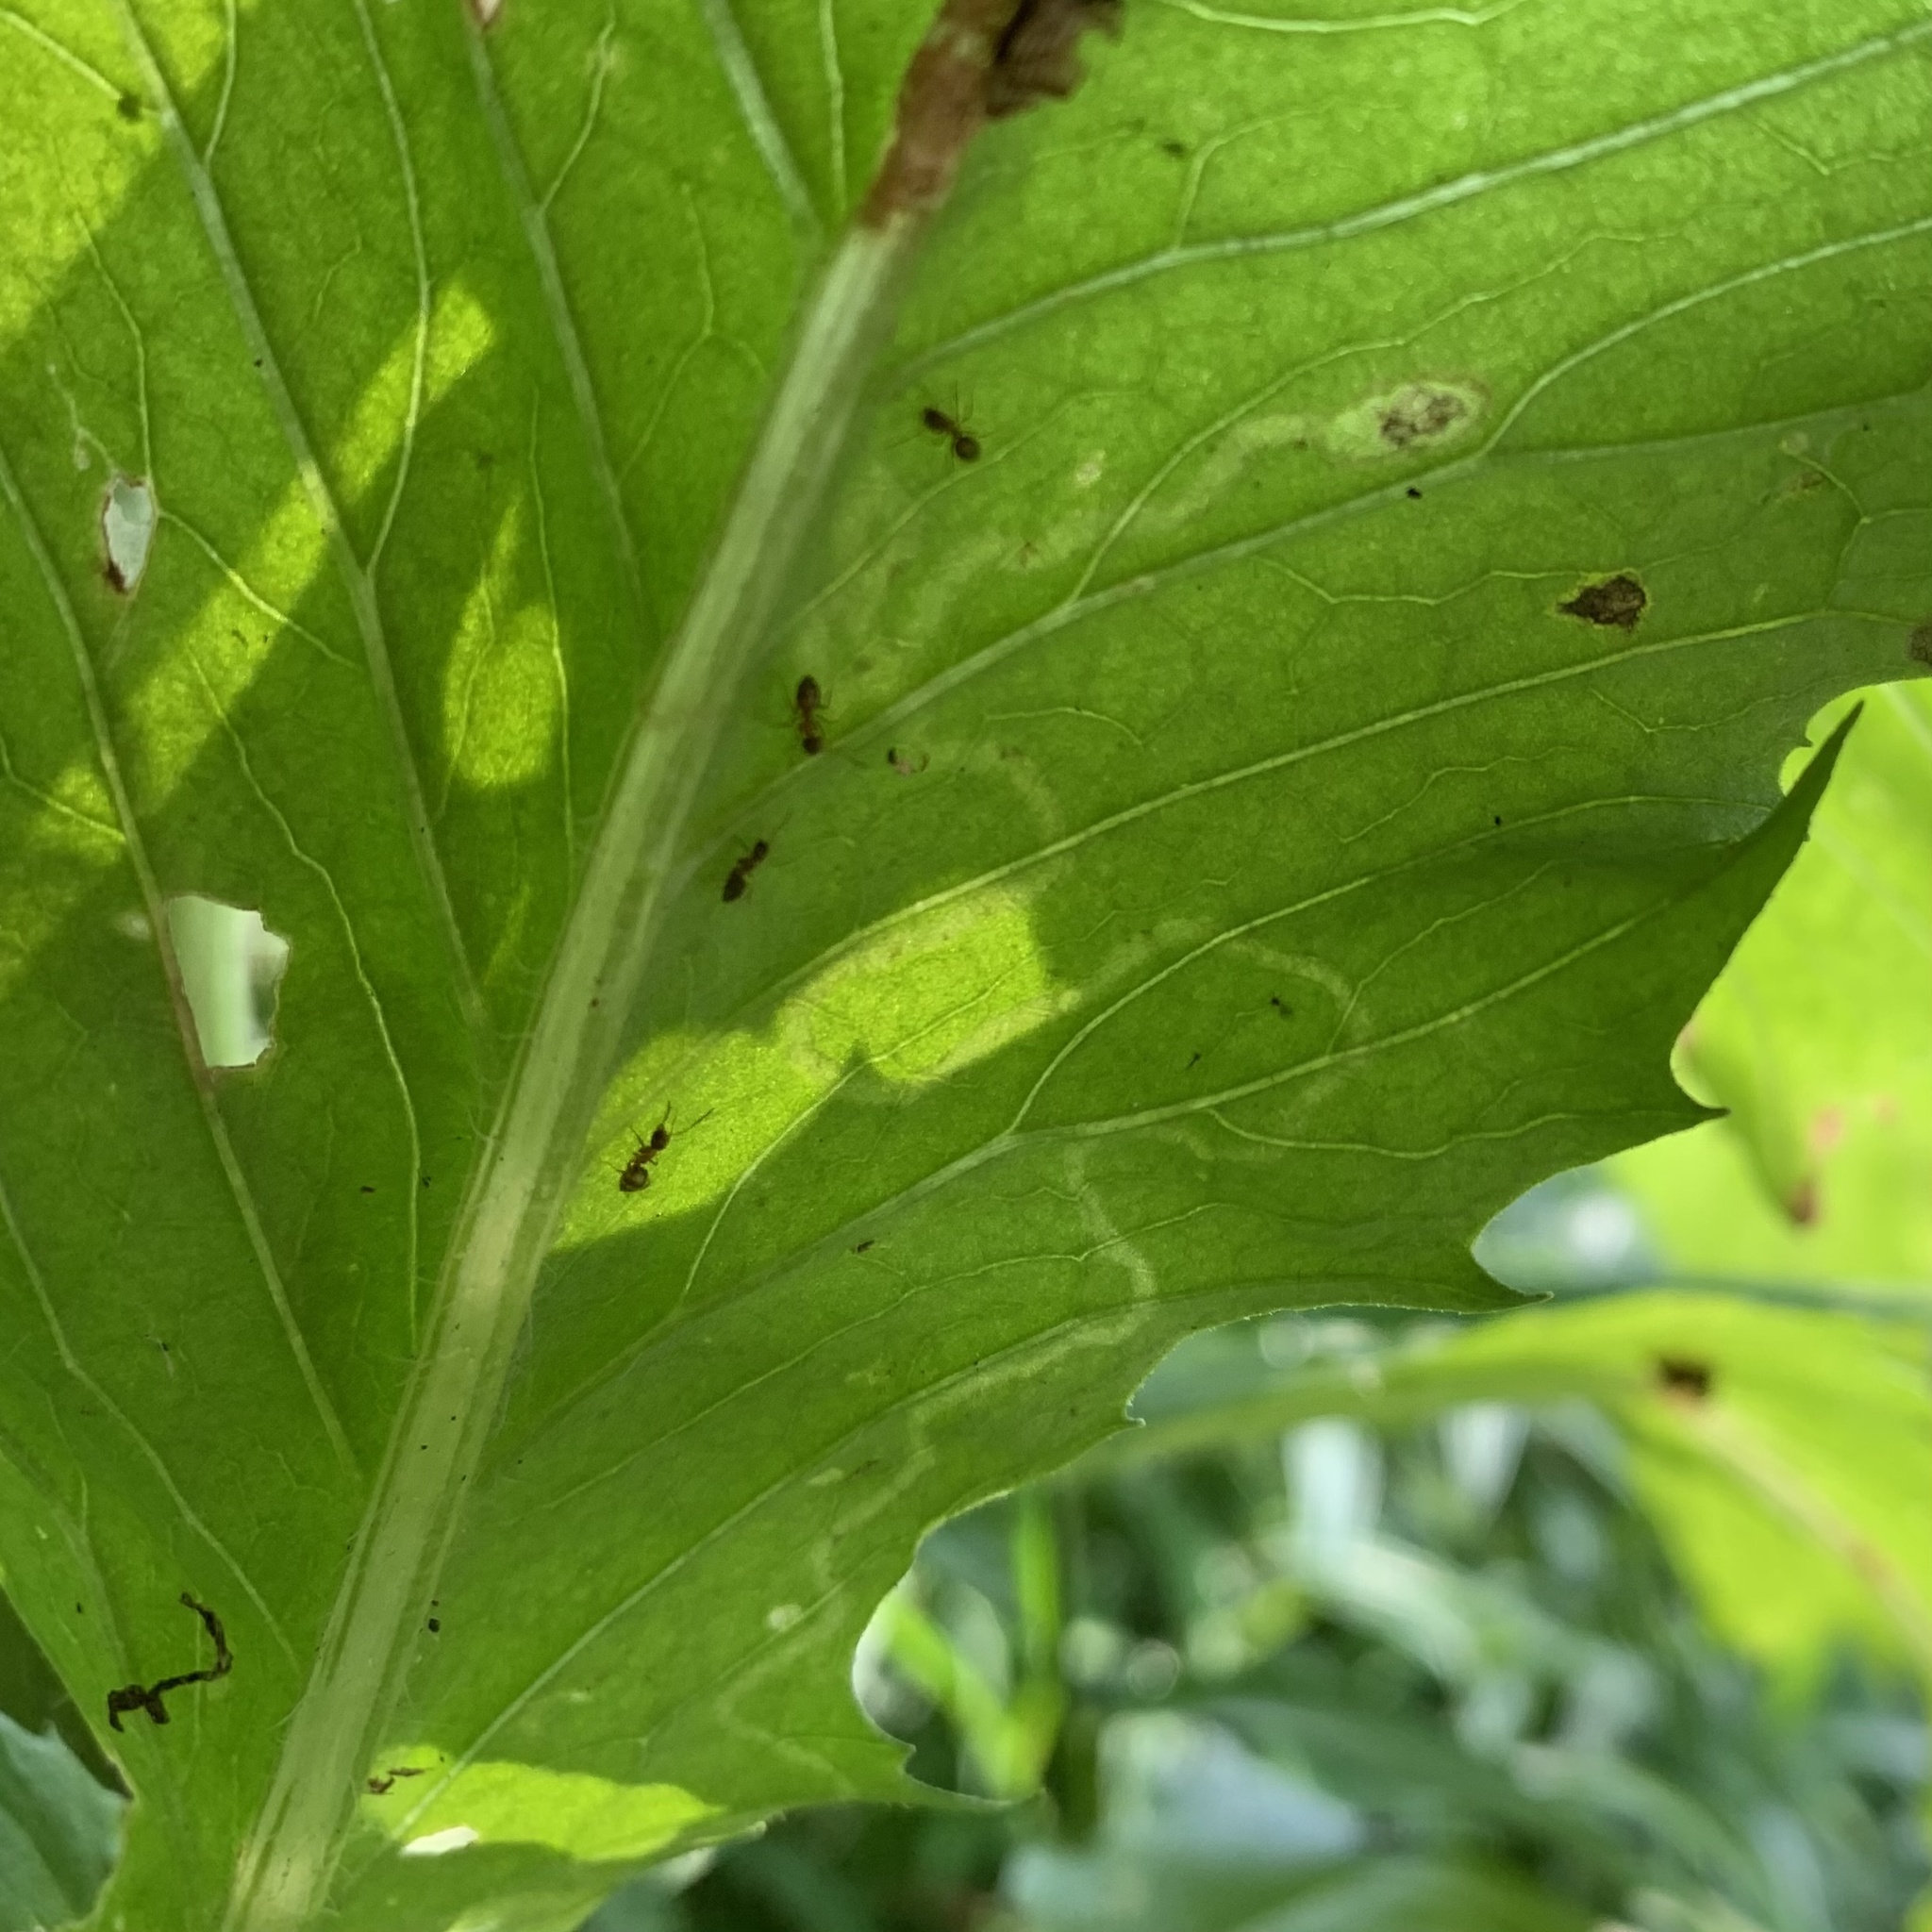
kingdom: Animalia
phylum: Arthropoda
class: Insecta
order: Lepidoptera
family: Gracillariidae
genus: Phyllocnistis
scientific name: Phyllocnistis insignis
